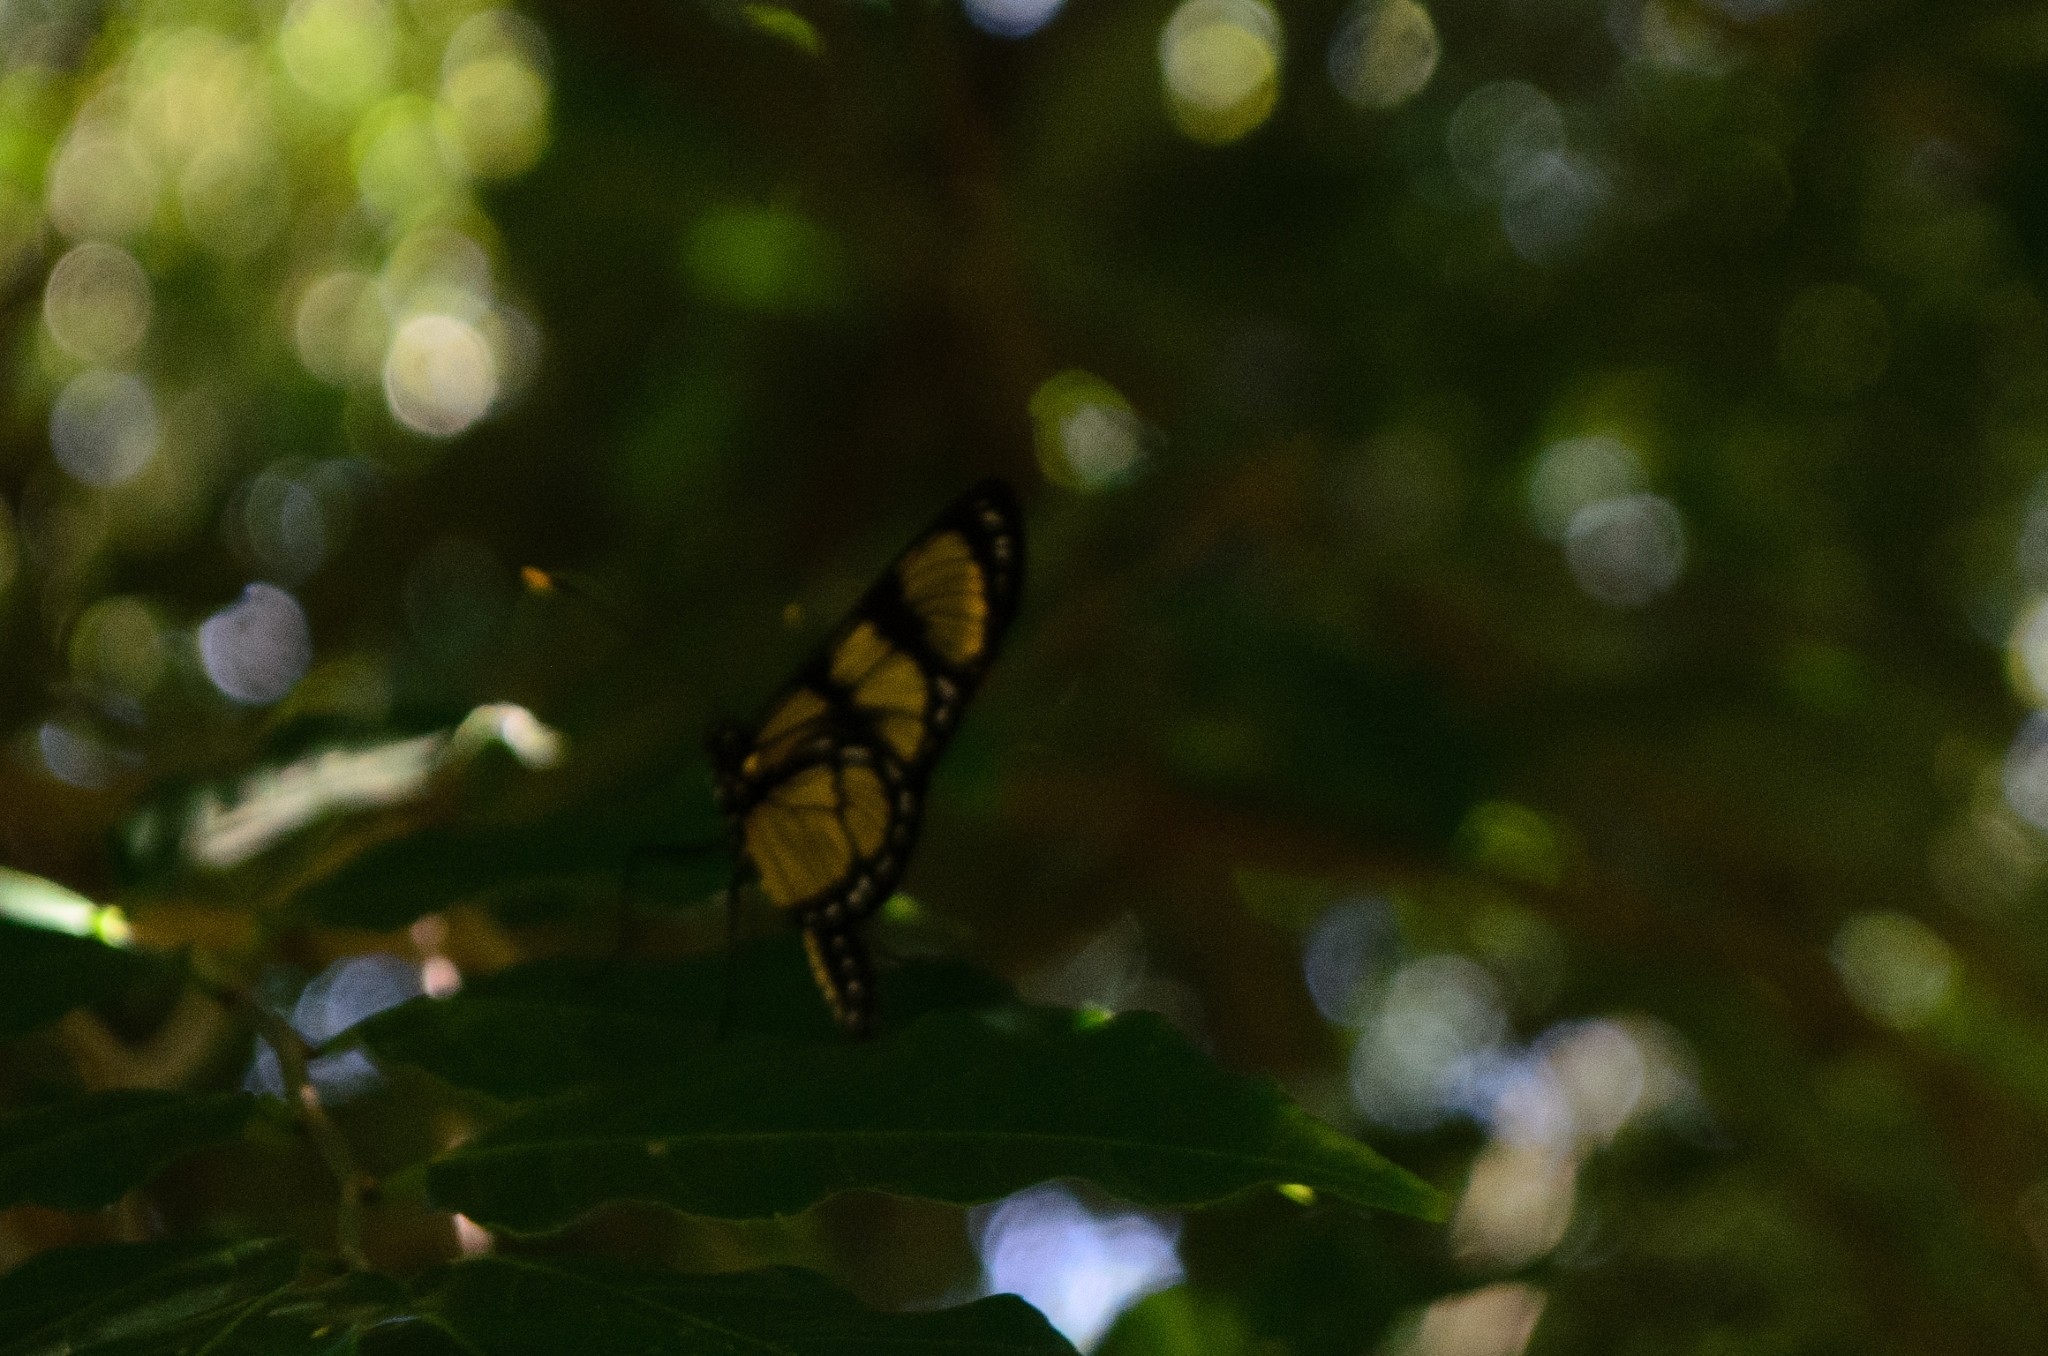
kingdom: Animalia
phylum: Arthropoda
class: Insecta
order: Lepidoptera
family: Nymphalidae
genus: Methona
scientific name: Methona themisto
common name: Themisto amberwing
